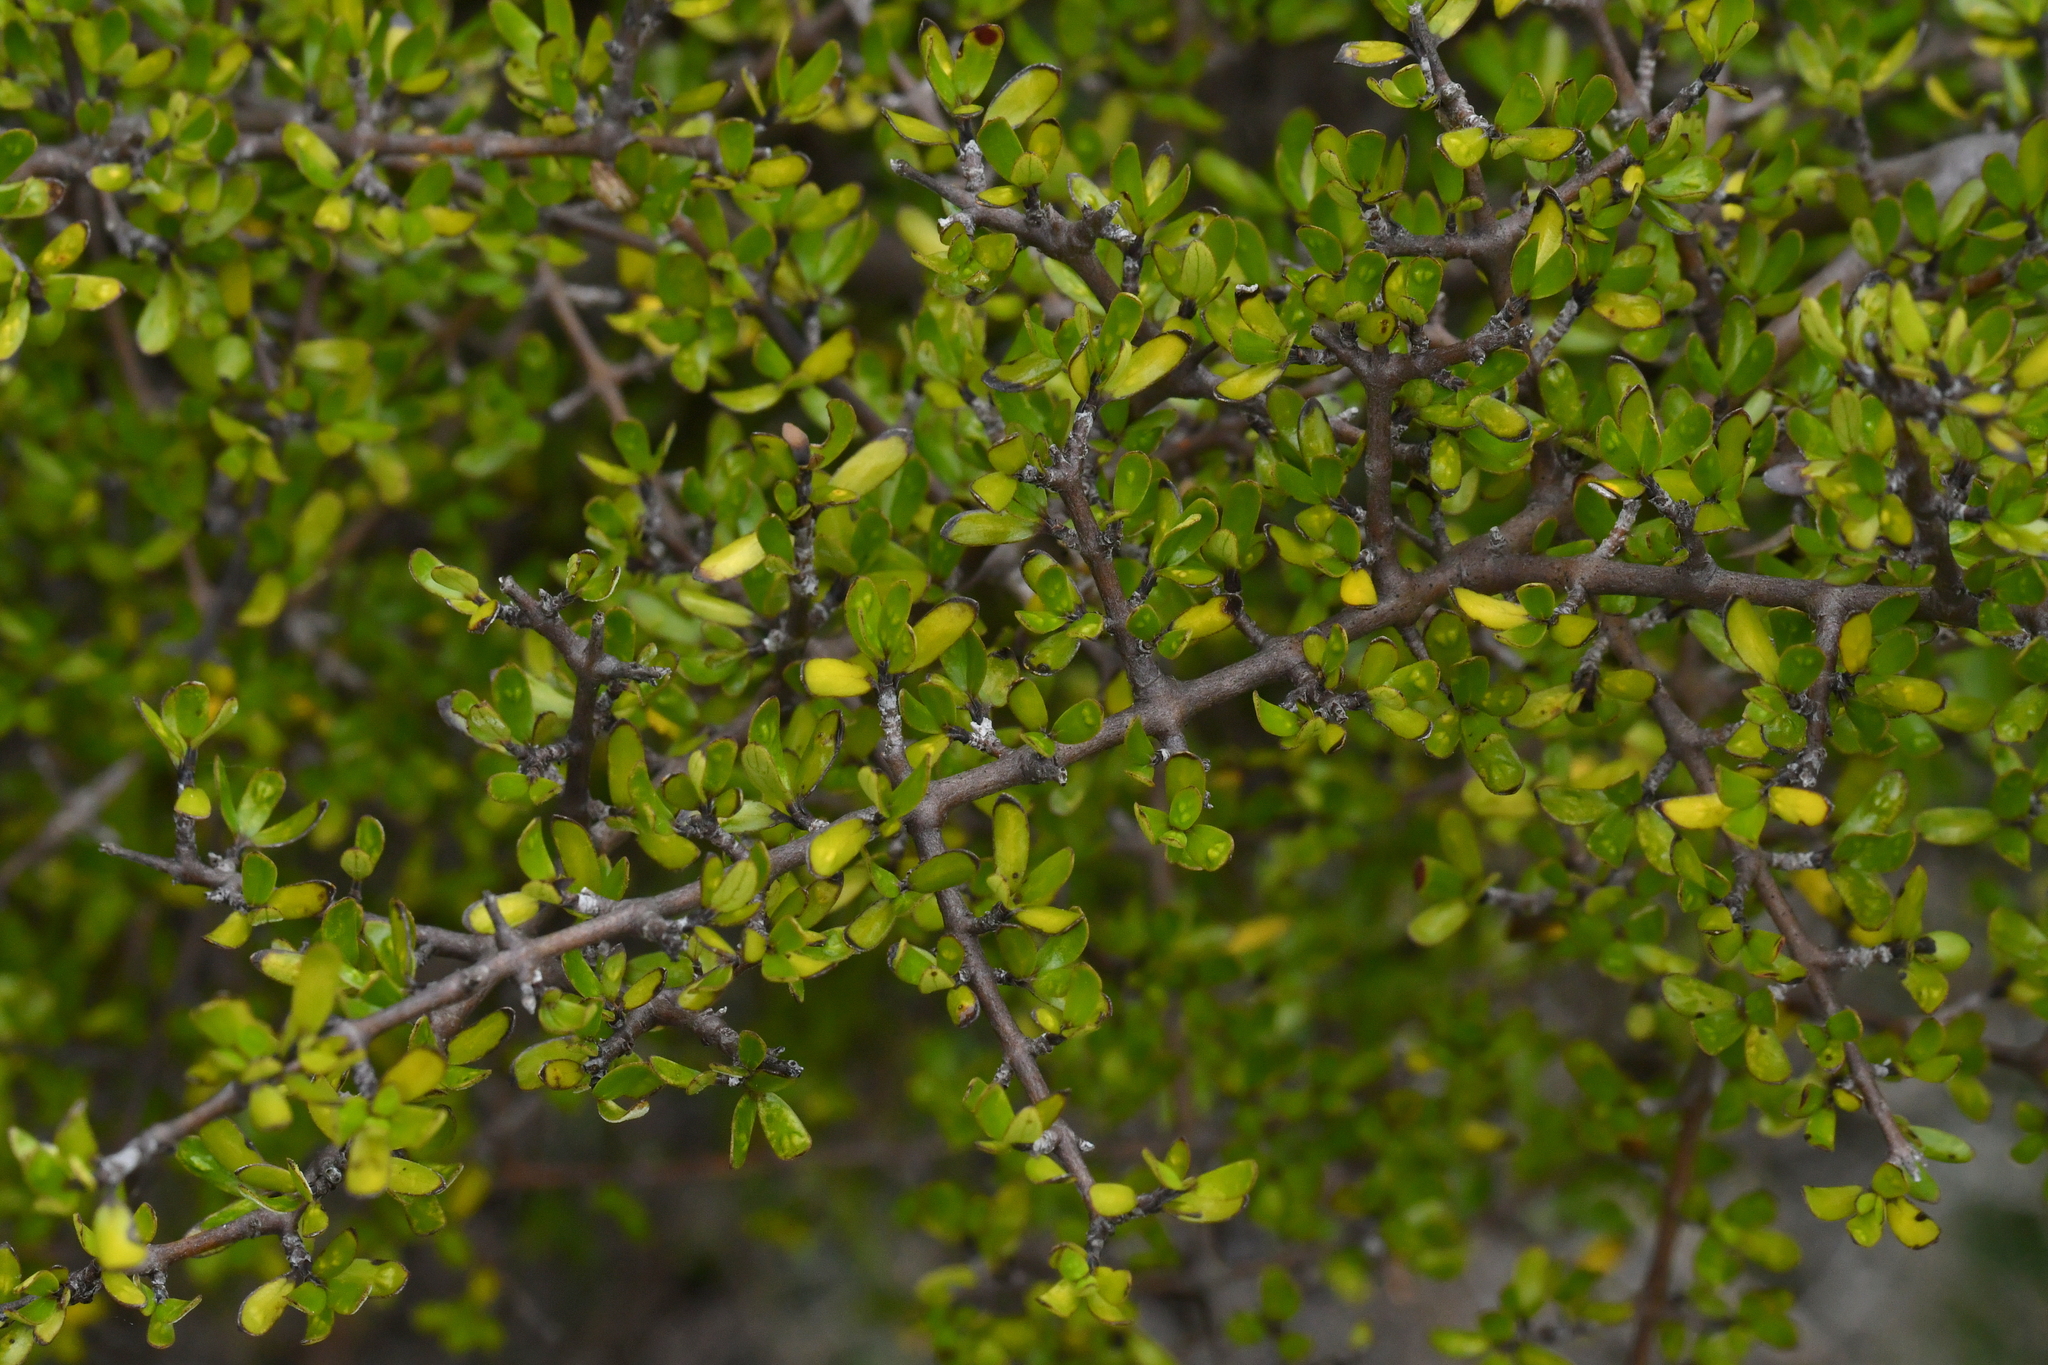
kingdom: Plantae
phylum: Tracheophyta
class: Magnoliopsida
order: Gentianales
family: Rubiaceae
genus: Coprosma
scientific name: Coprosma propinqua
